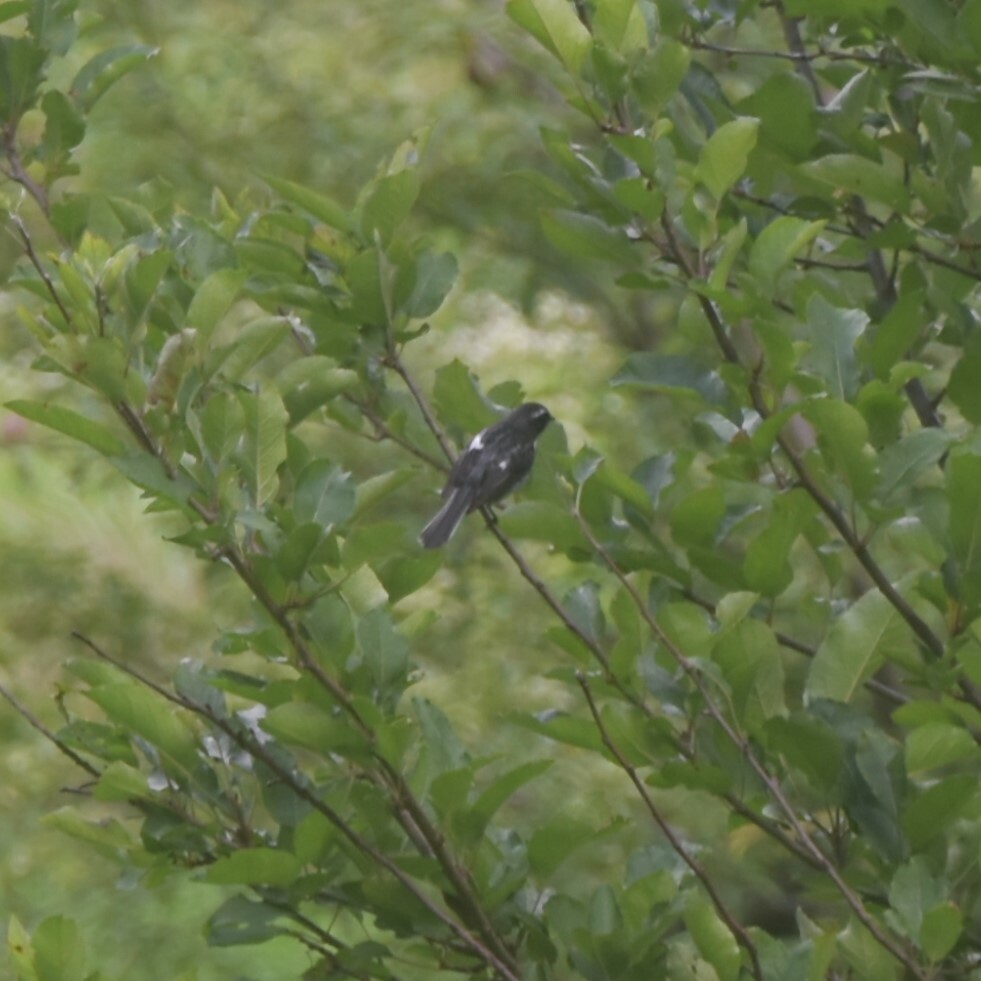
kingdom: Animalia
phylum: Chordata
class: Aves
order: Passeriformes
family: Muscicapidae
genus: Saxicola
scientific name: Saxicola ferreus
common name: Grey bush chat
